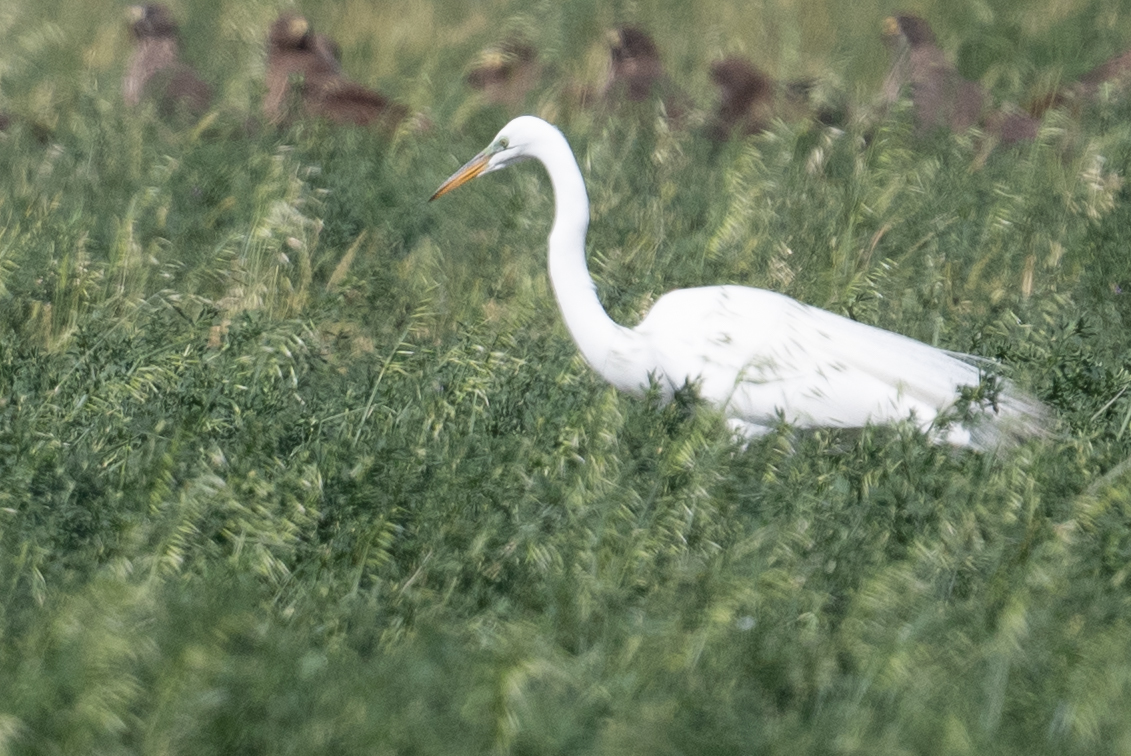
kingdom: Animalia
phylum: Chordata
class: Aves
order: Pelecaniformes
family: Ardeidae
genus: Ardea
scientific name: Ardea alba
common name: Great egret
